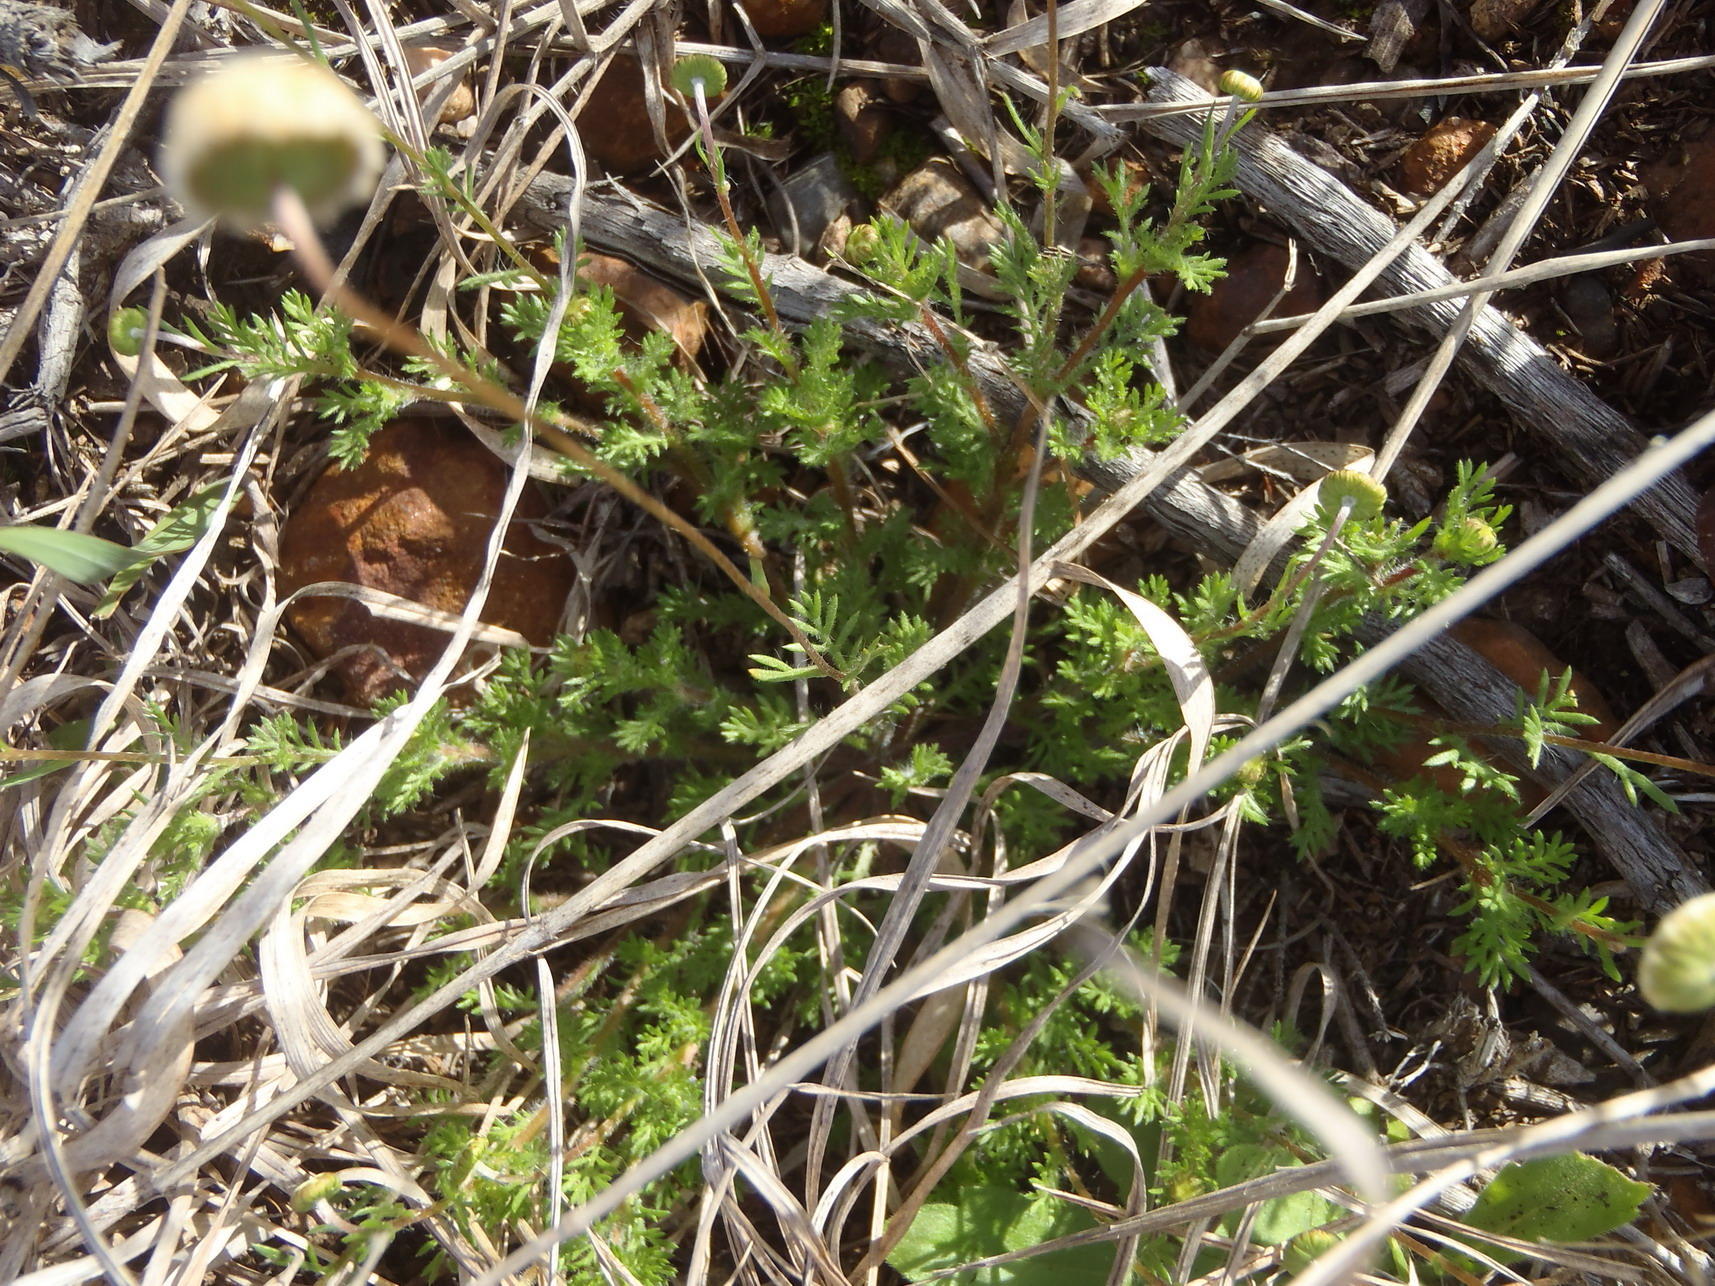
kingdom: Plantae
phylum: Tracheophyta
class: Magnoliopsida
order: Asterales
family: Asteraceae
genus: Cotula
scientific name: Cotula laxa
